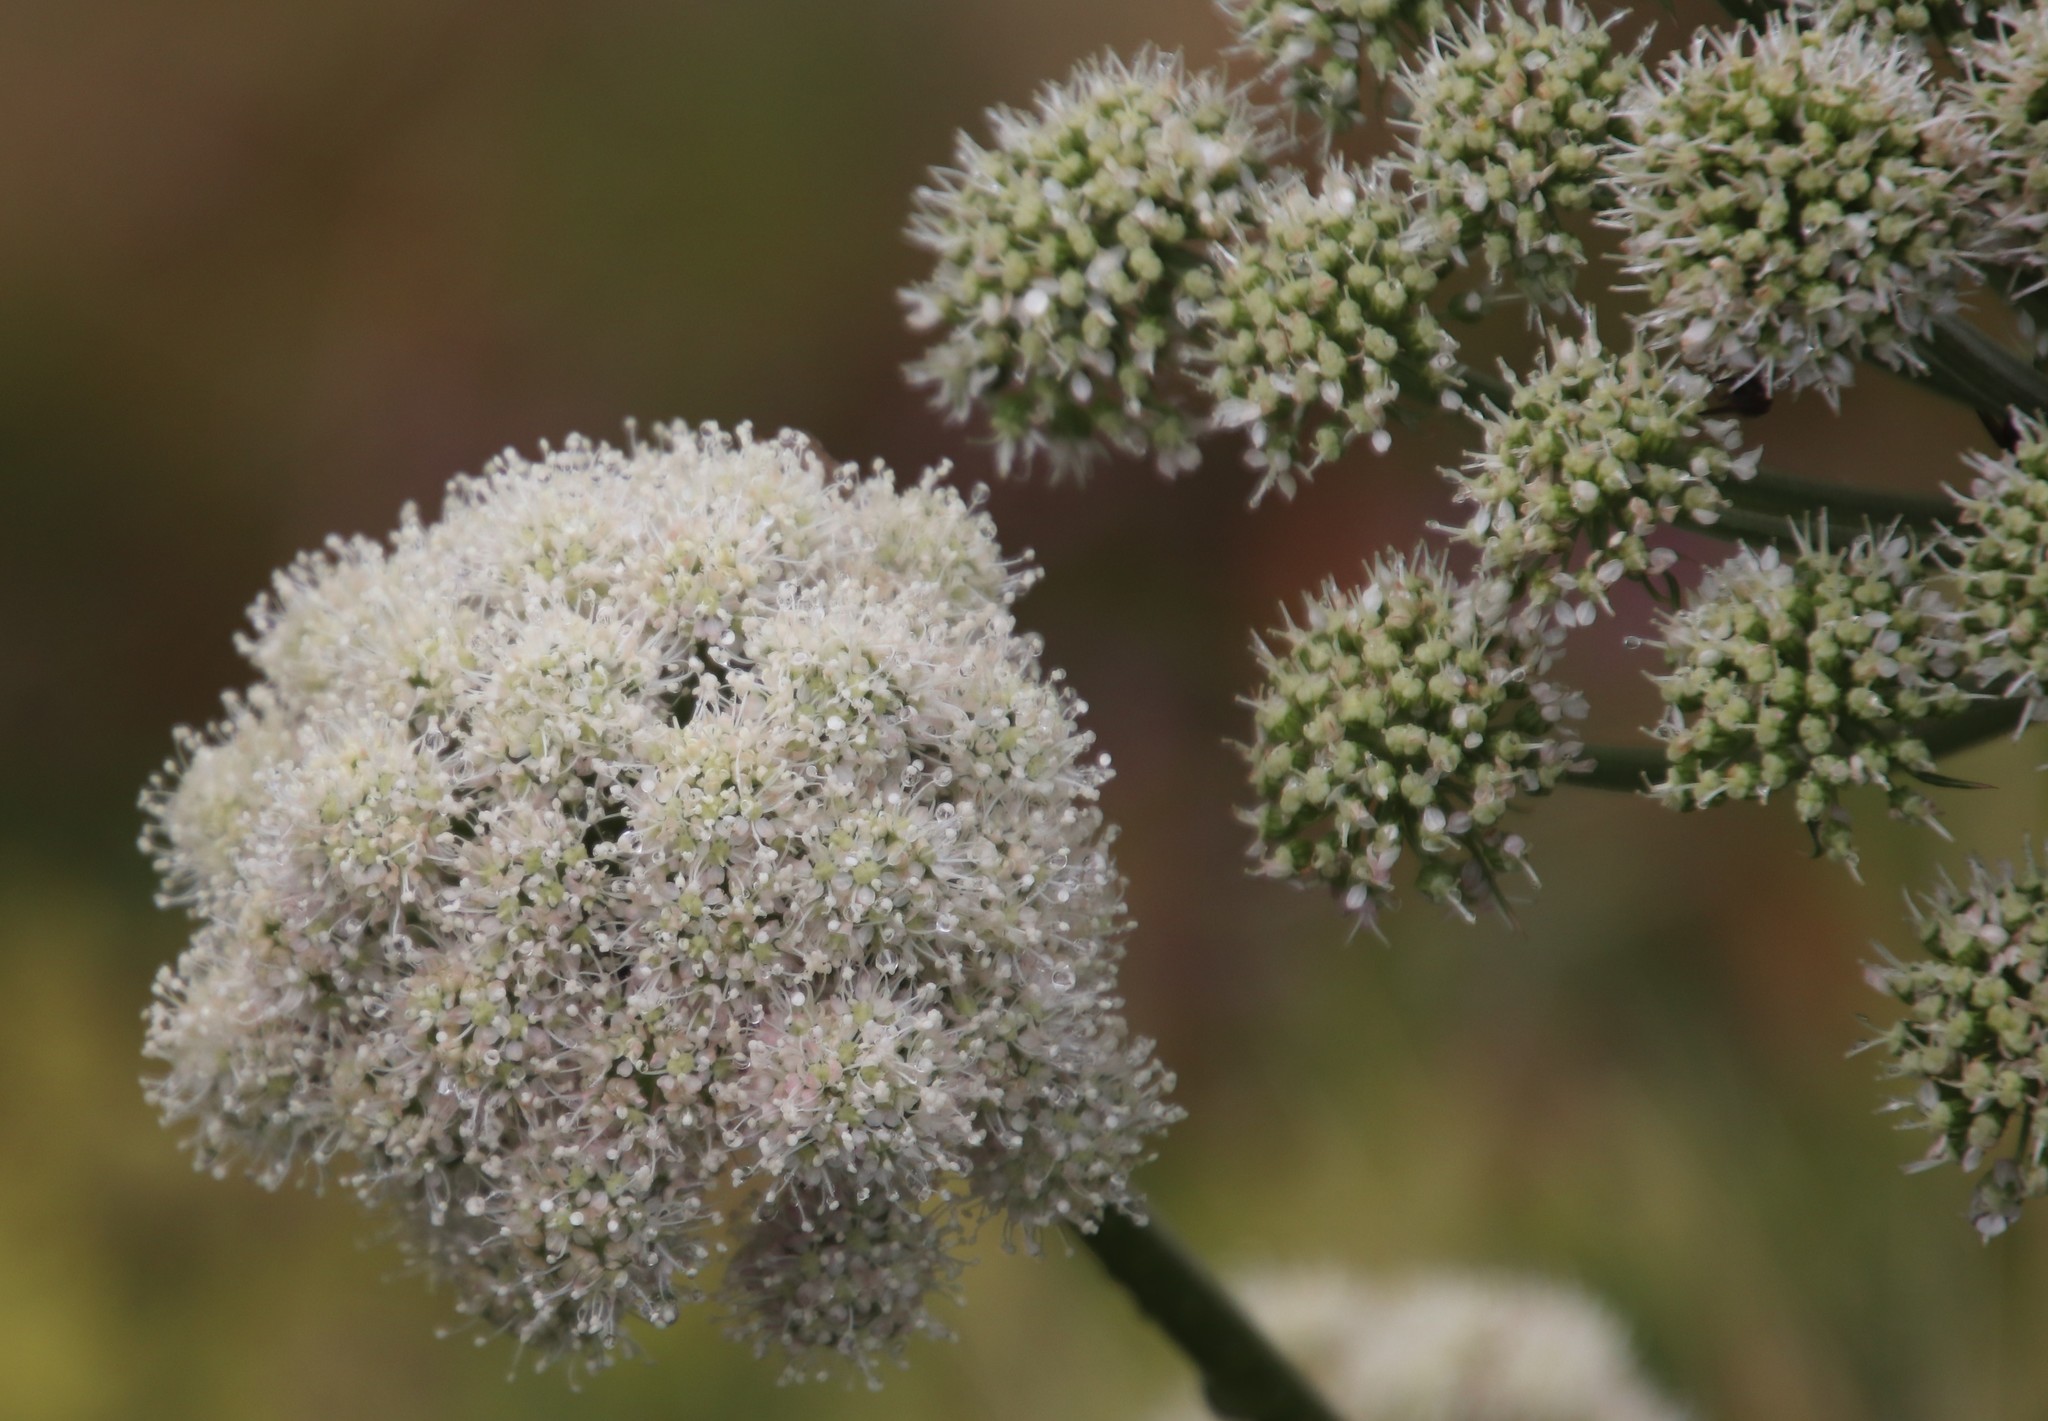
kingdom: Plantae
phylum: Tracheophyta
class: Magnoliopsida
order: Apiales
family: Apiaceae
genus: Angelica
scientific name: Angelica sylvestris
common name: Wild angelica
